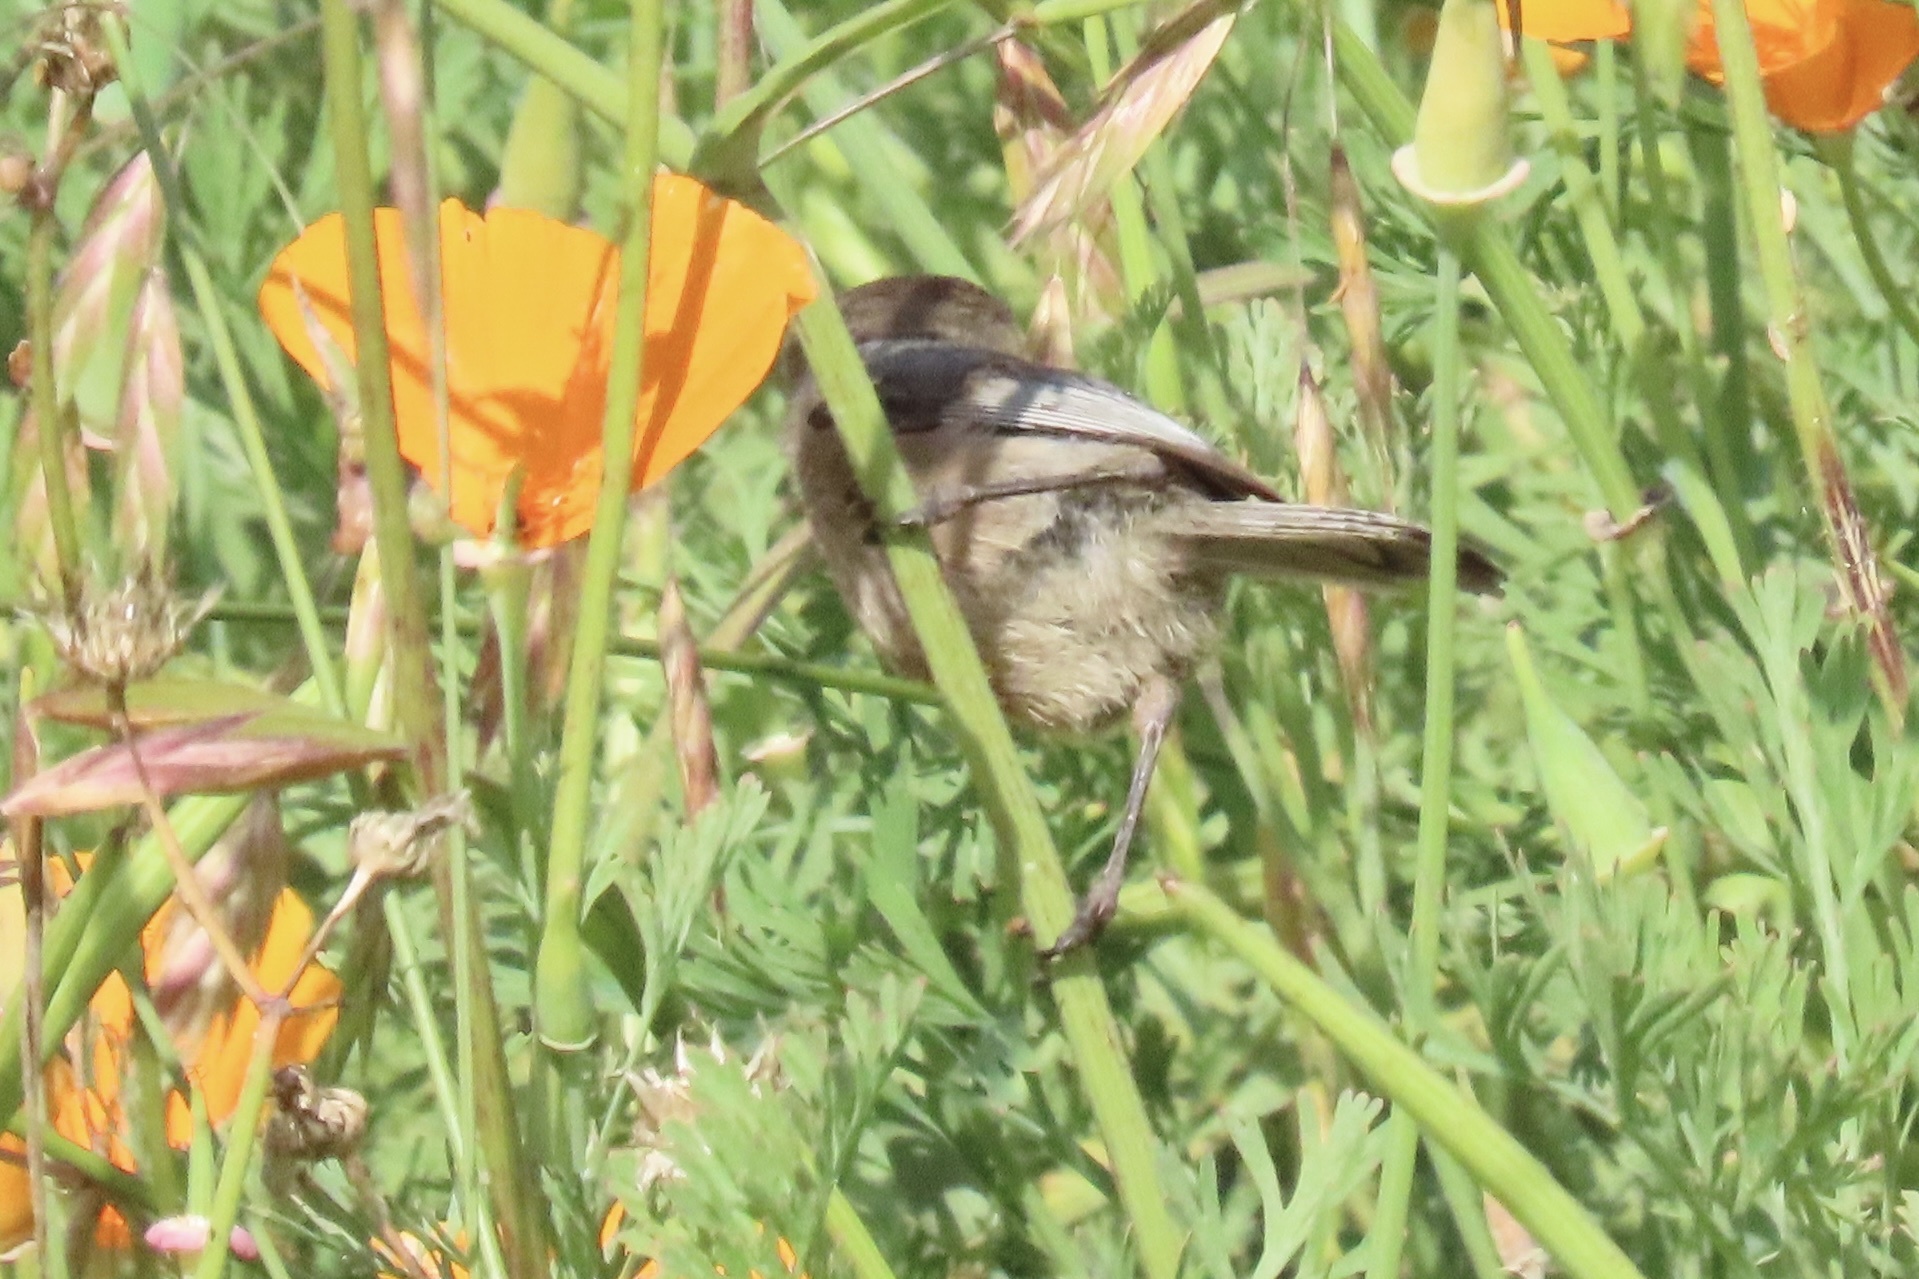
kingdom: Animalia
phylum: Chordata
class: Aves
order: Passeriformes
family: Aegithalidae
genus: Psaltriparus
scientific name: Psaltriparus minimus
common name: American bushtit
